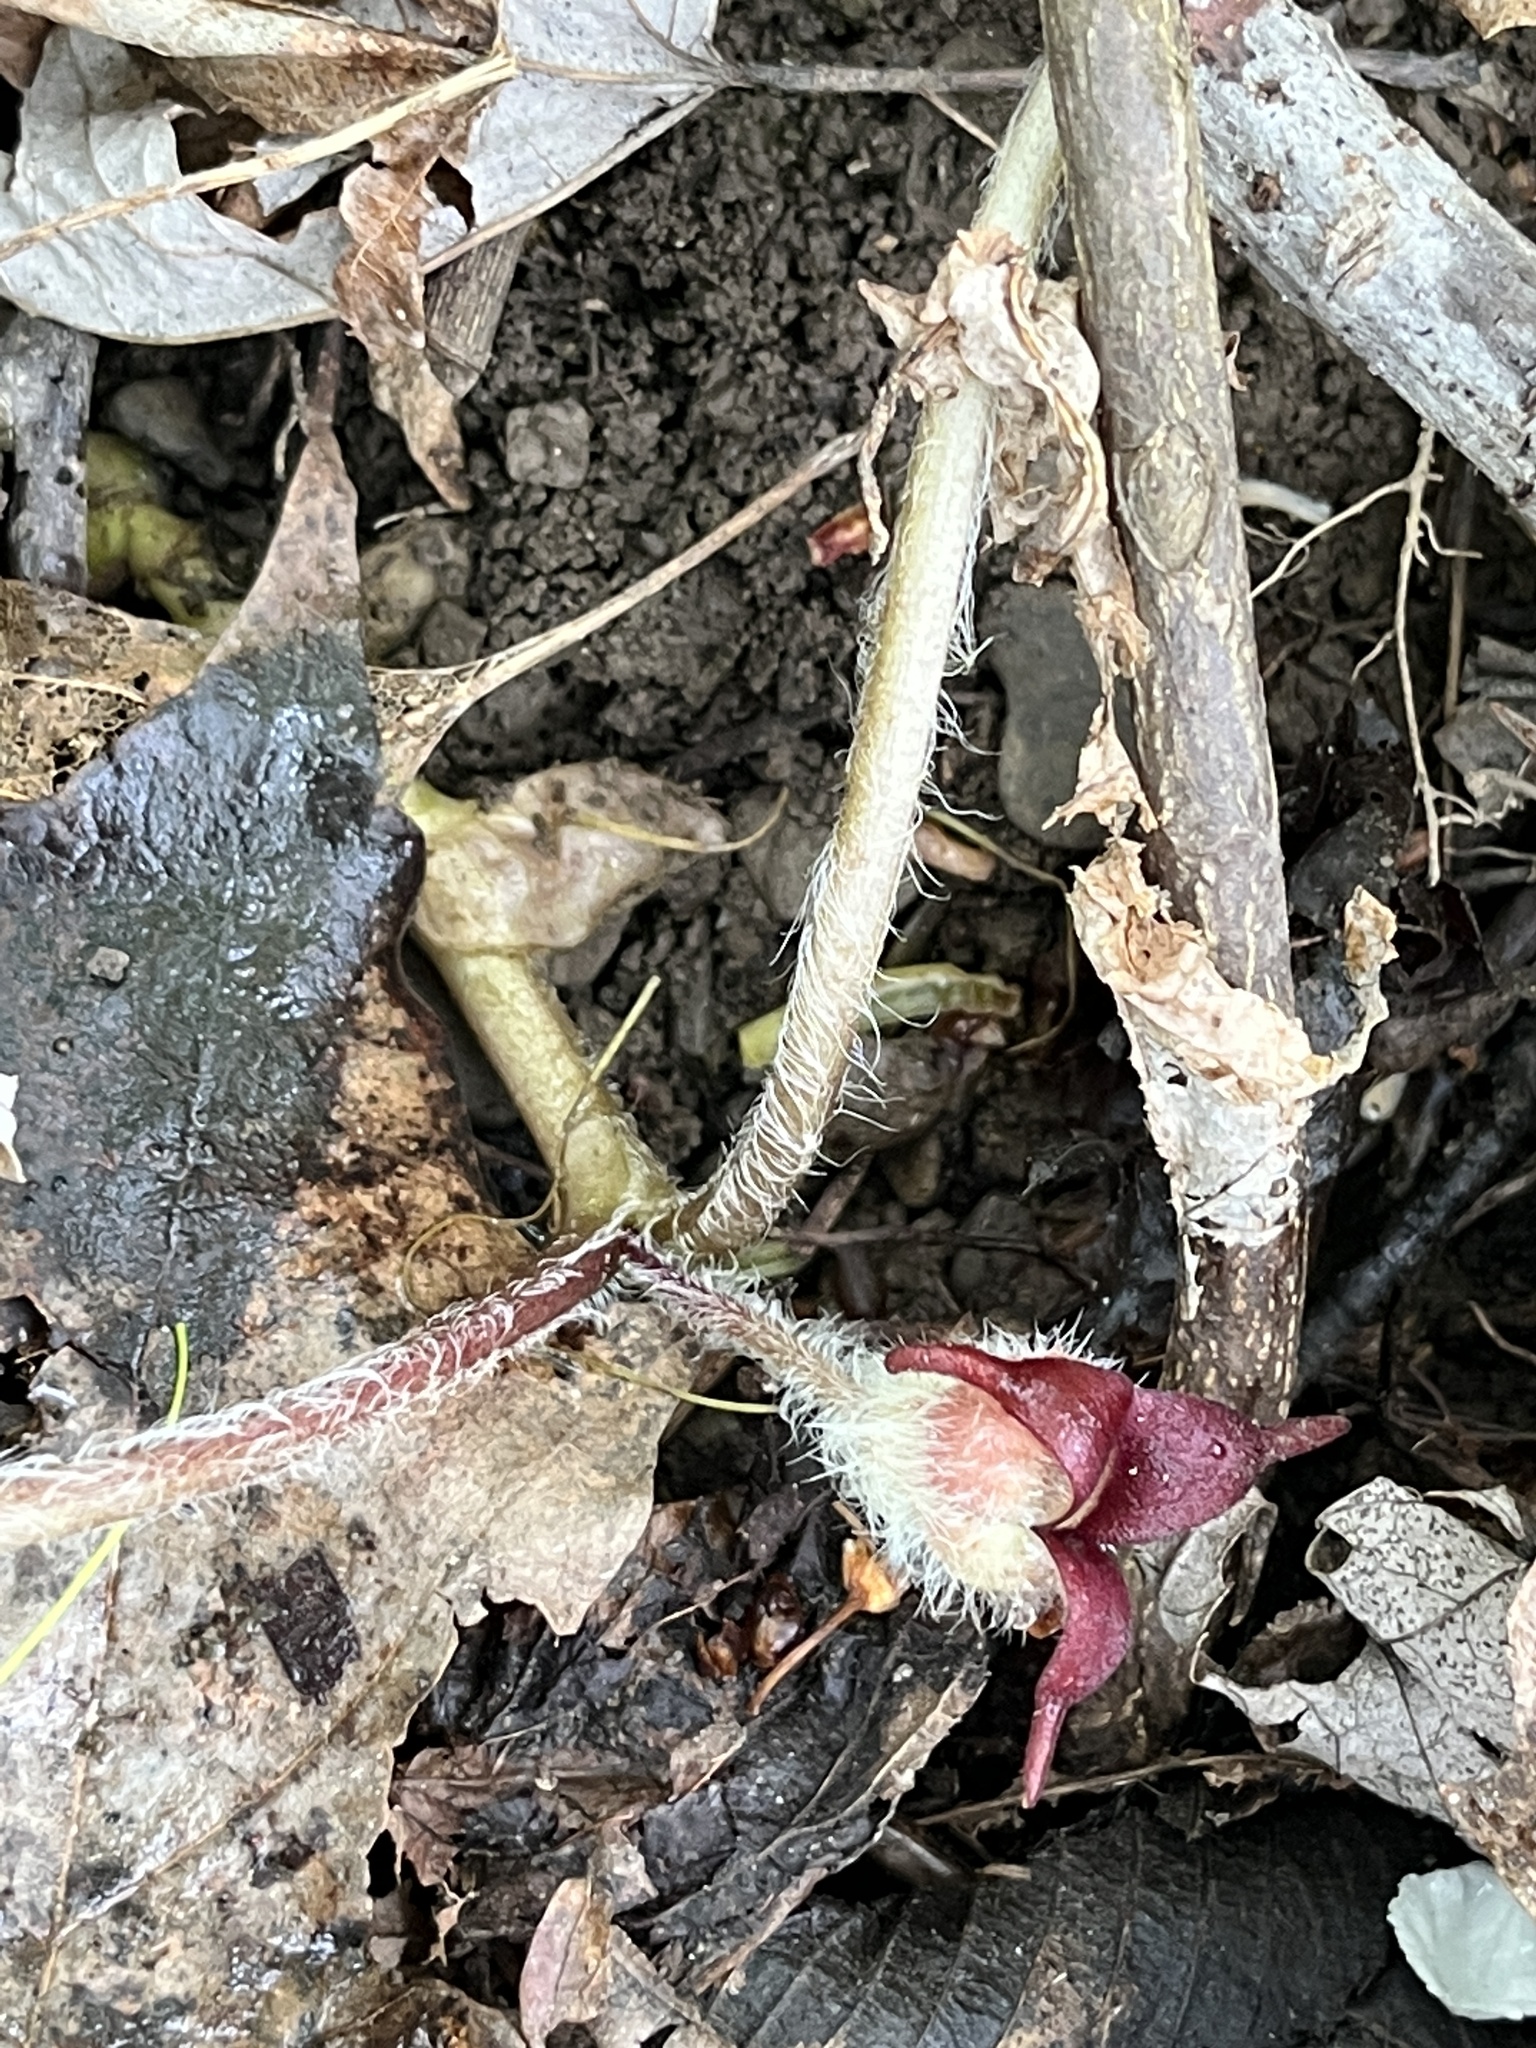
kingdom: Plantae
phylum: Tracheophyta
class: Magnoliopsida
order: Piperales
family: Aristolochiaceae
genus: Asarum
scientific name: Asarum canadense
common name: Wild ginger
